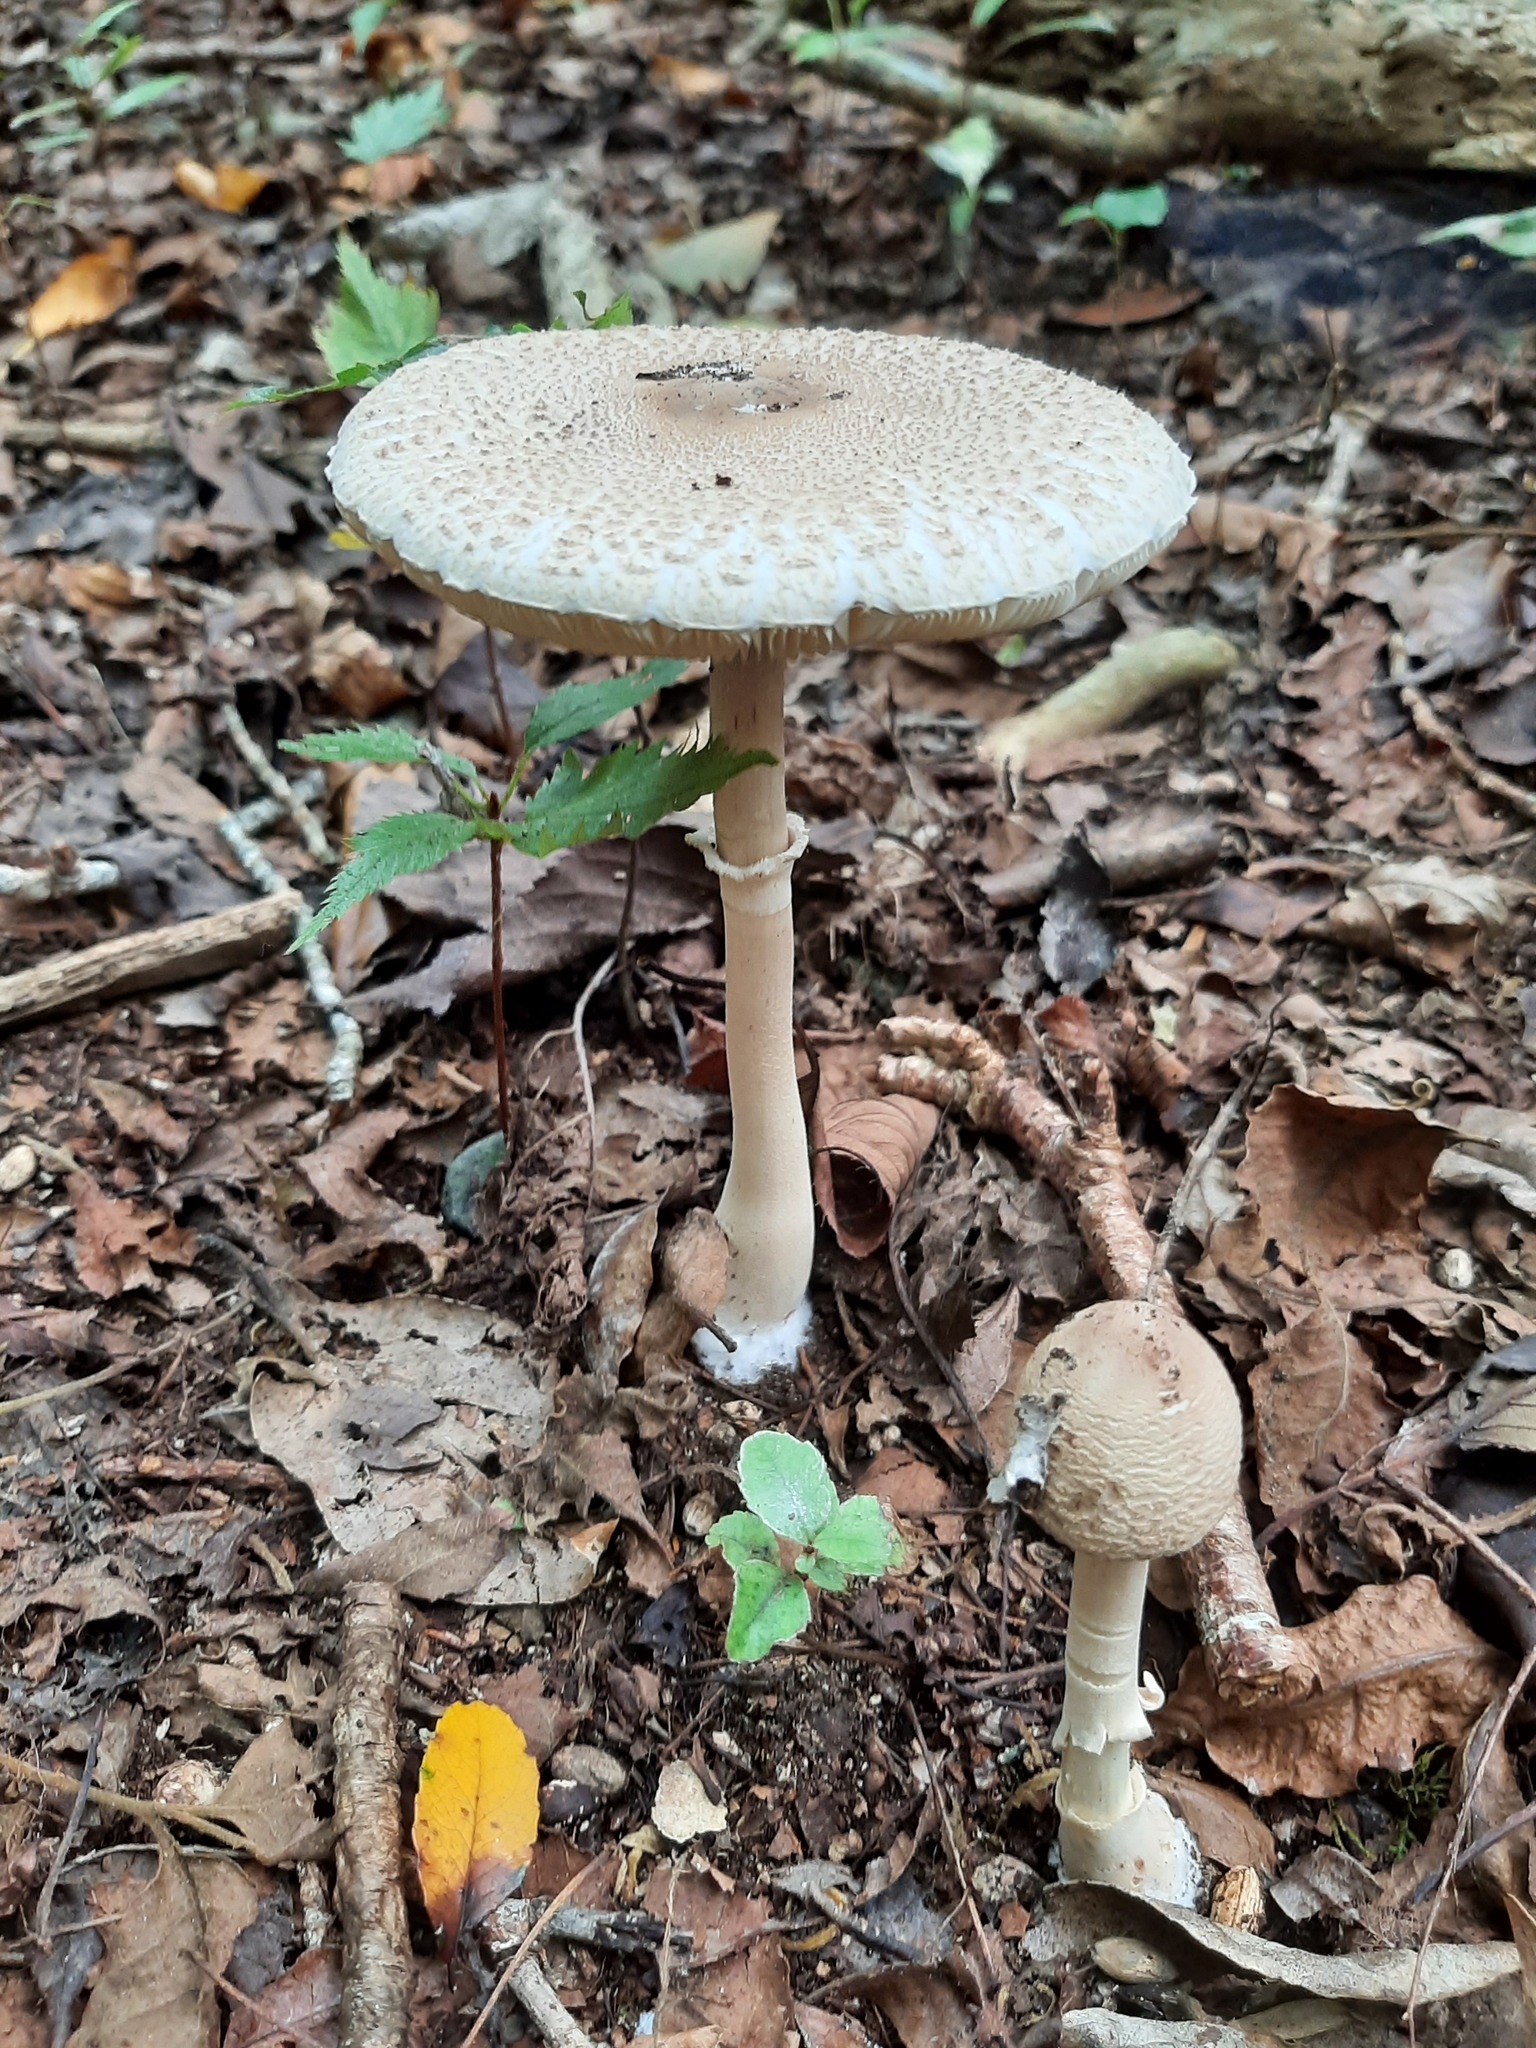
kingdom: Fungi
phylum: Basidiomycota
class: Agaricomycetes
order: Agaricales
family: Agaricaceae
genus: Macrolepiota
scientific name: Macrolepiota clelandii
